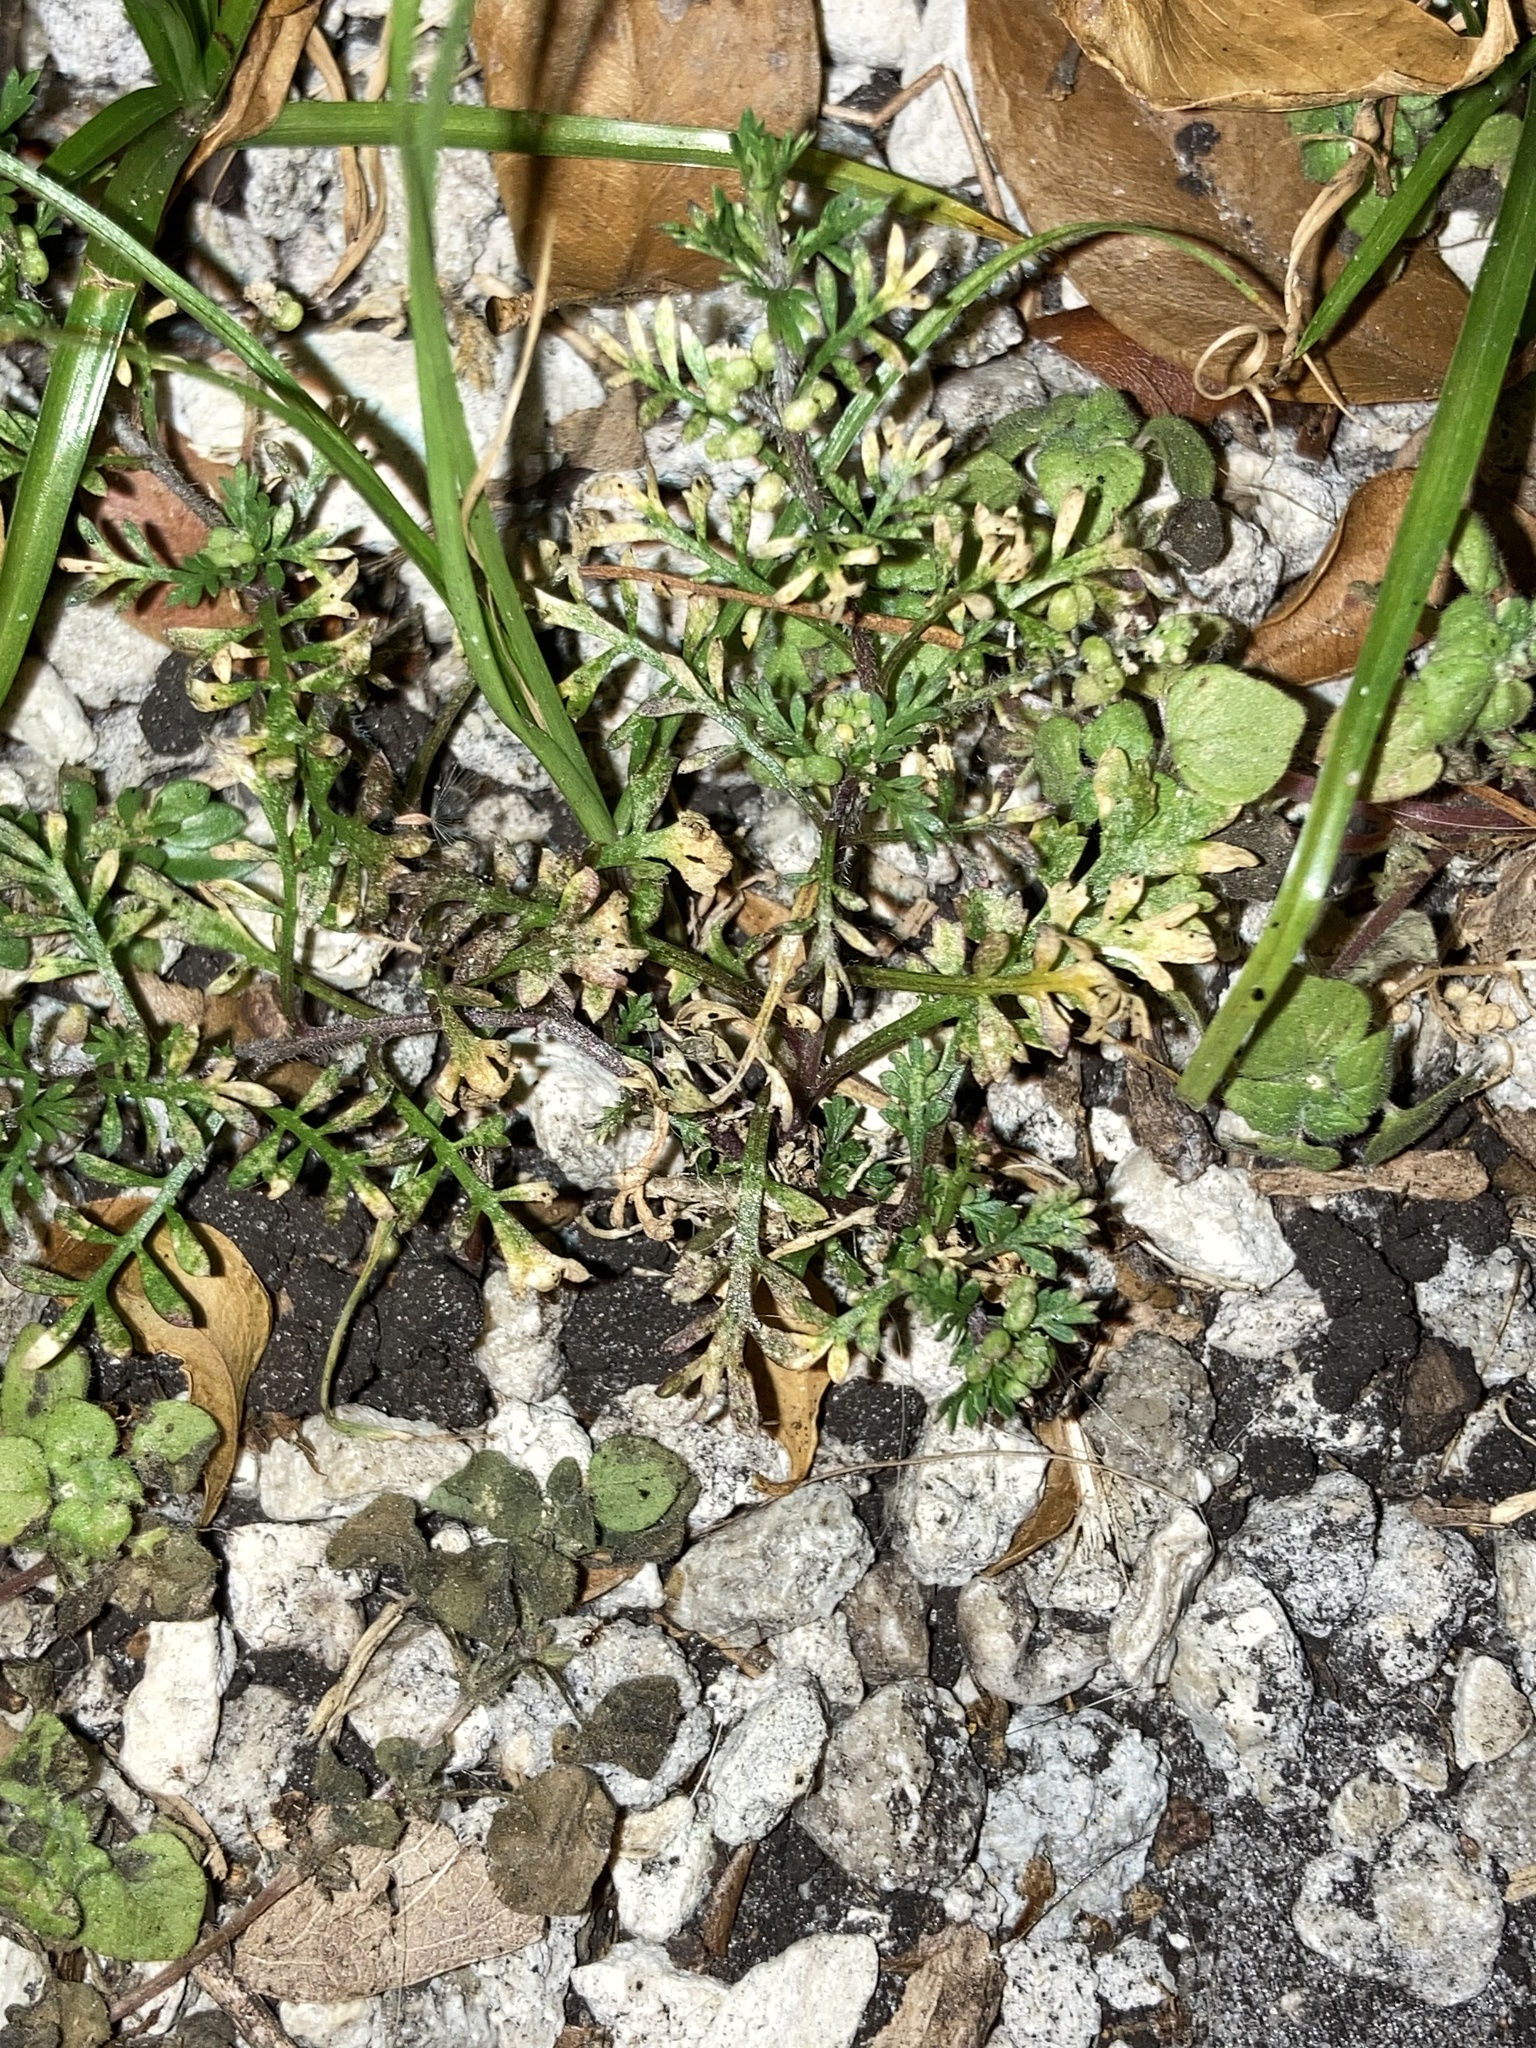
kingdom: Plantae
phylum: Tracheophyta
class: Magnoliopsida
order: Brassicales
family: Brassicaceae
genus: Lepidium
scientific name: Lepidium didymum
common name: Lesser swinecress
